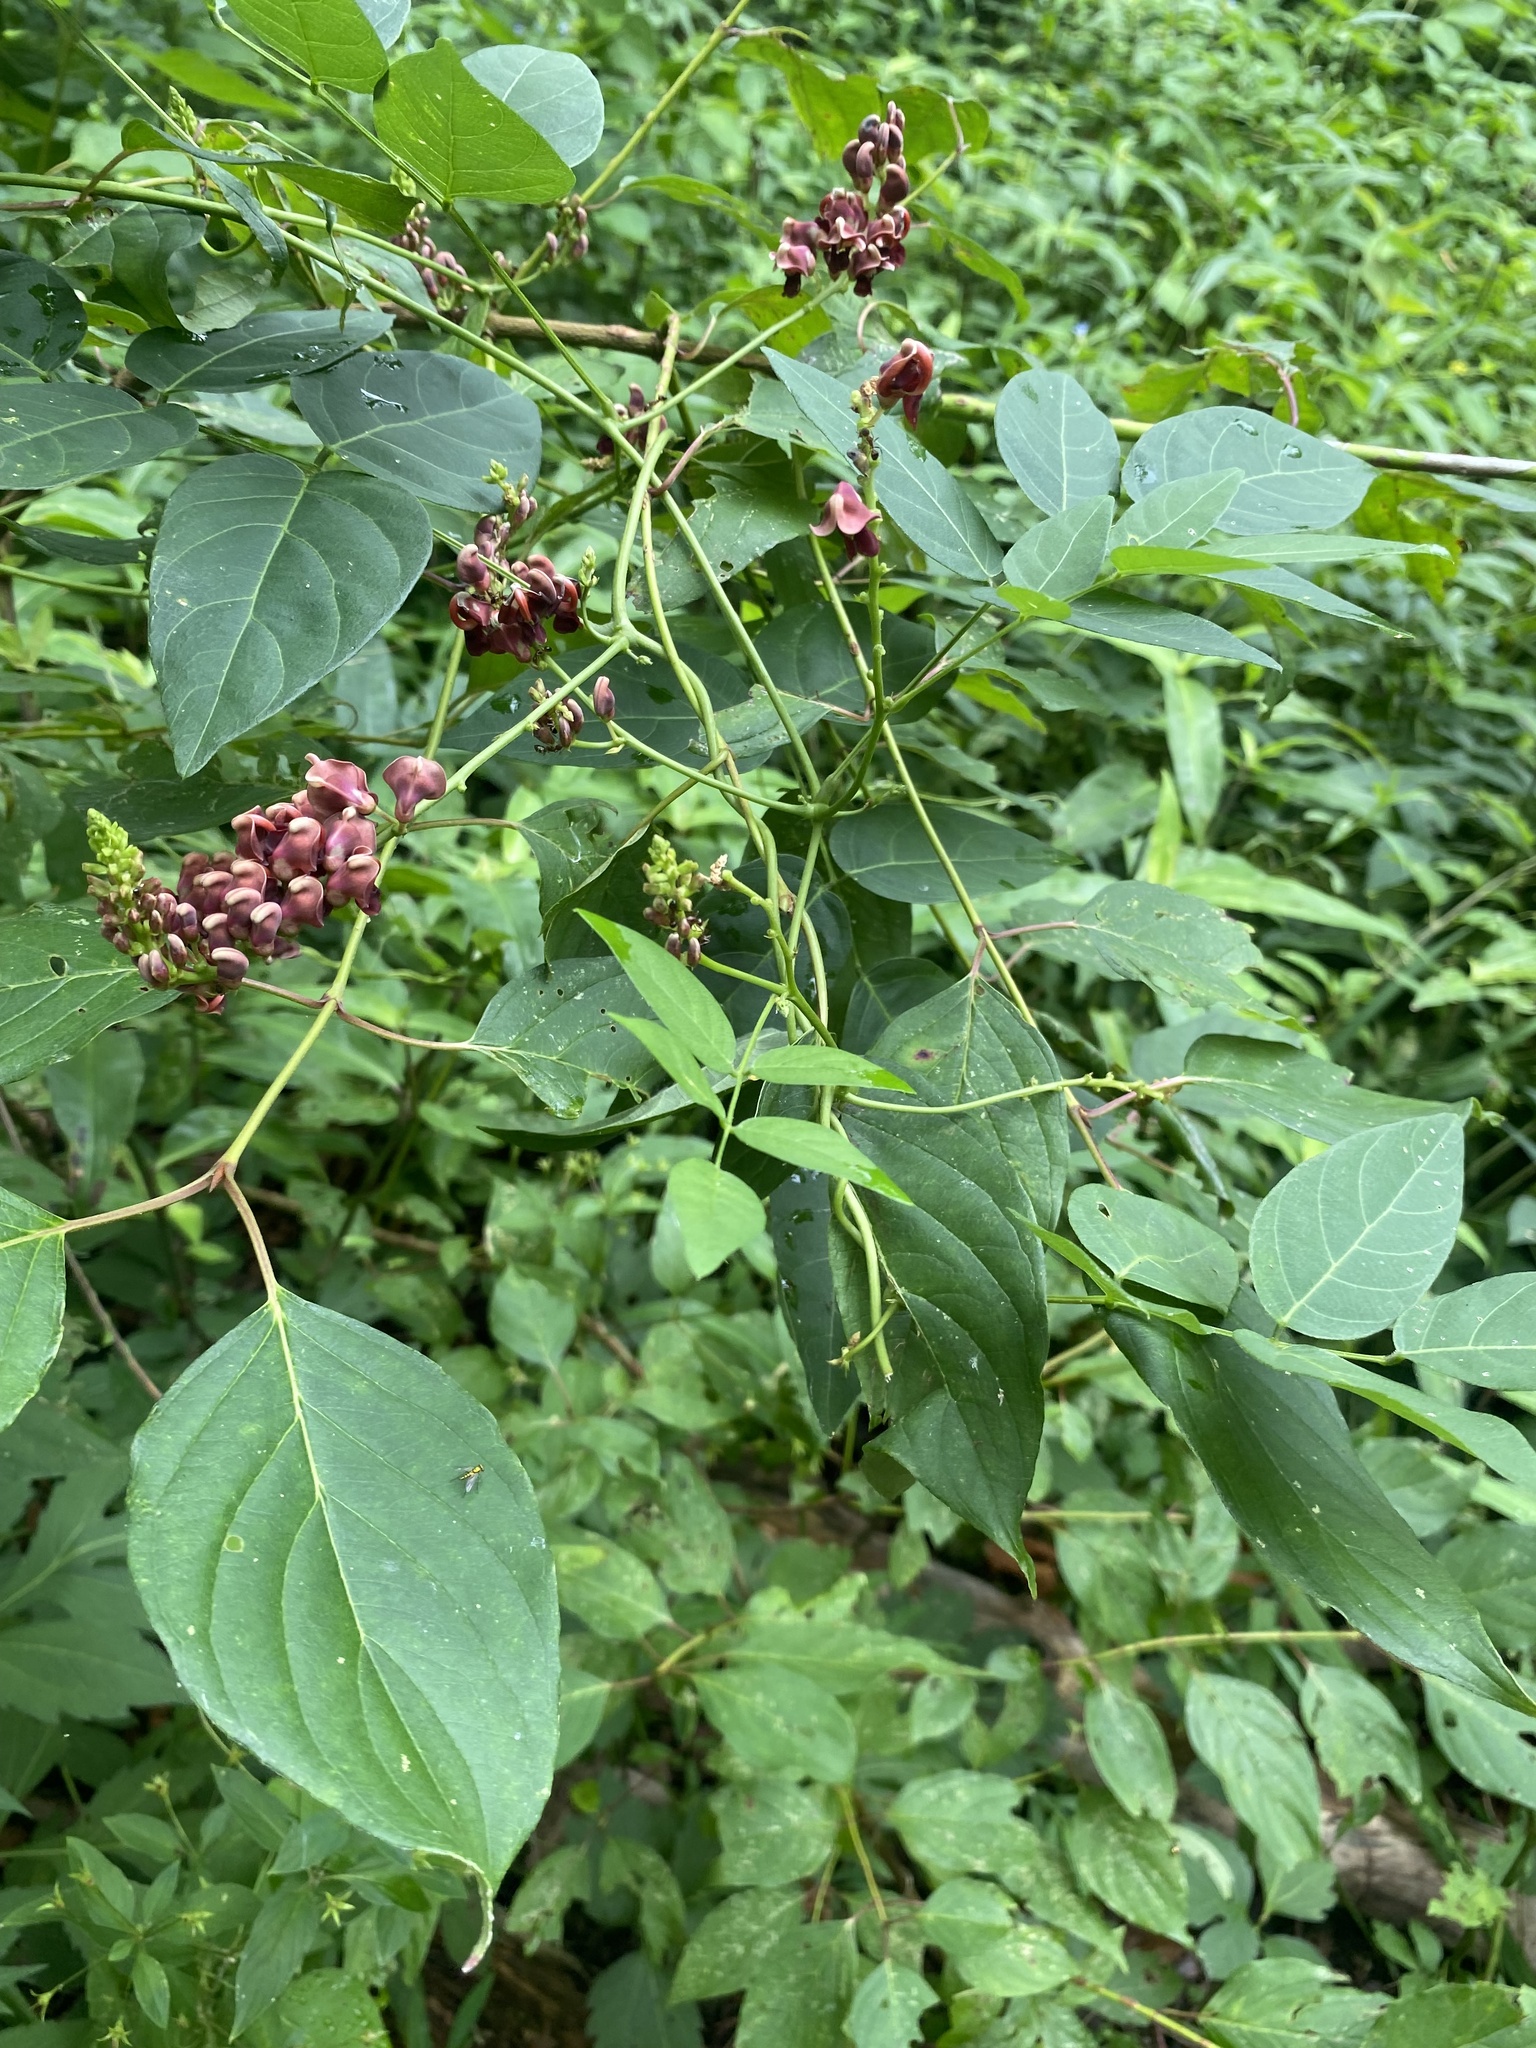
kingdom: Plantae
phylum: Tracheophyta
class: Magnoliopsida
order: Fabales
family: Fabaceae
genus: Apios
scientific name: Apios americana
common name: American potato-bean
